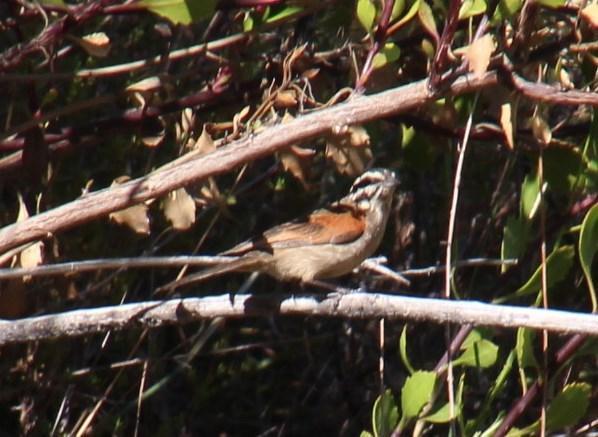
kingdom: Animalia
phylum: Chordata
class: Aves
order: Passeriformes
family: Emberizidae
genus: Emberiza
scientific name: Emberiza capensis
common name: Cape bunting
